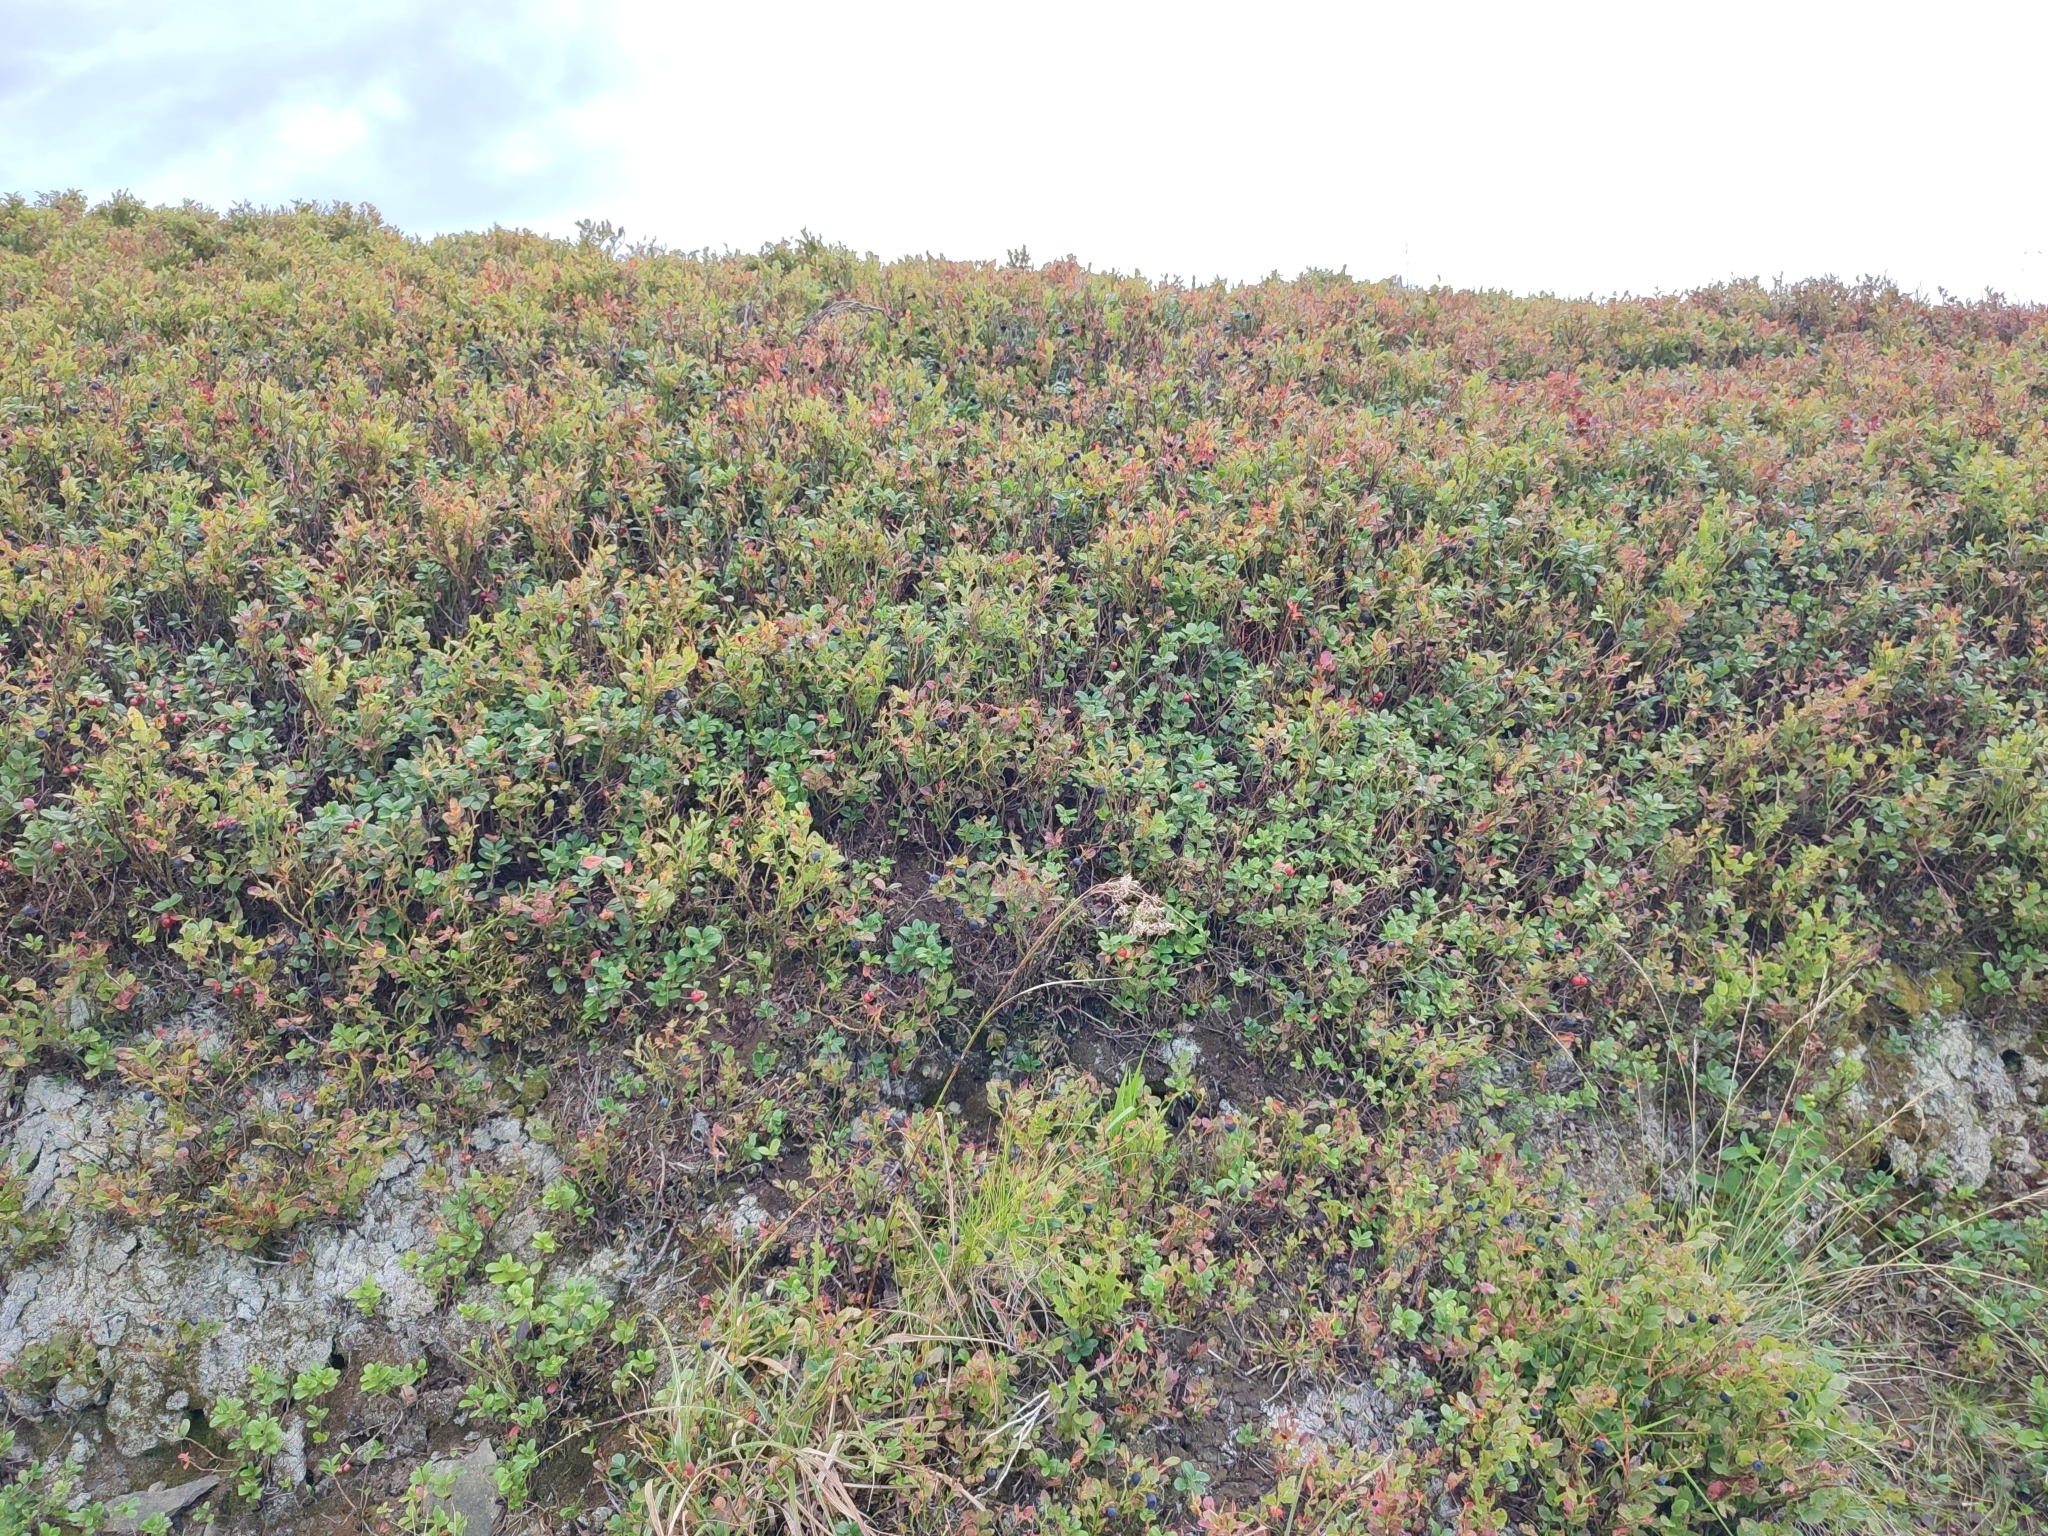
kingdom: Plantae
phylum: Tracheophyta
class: Magnoliopsida
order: Ericales
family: Ericaceae
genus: Vaccinium
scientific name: Vaccinium myrtillus
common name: Bilberry
